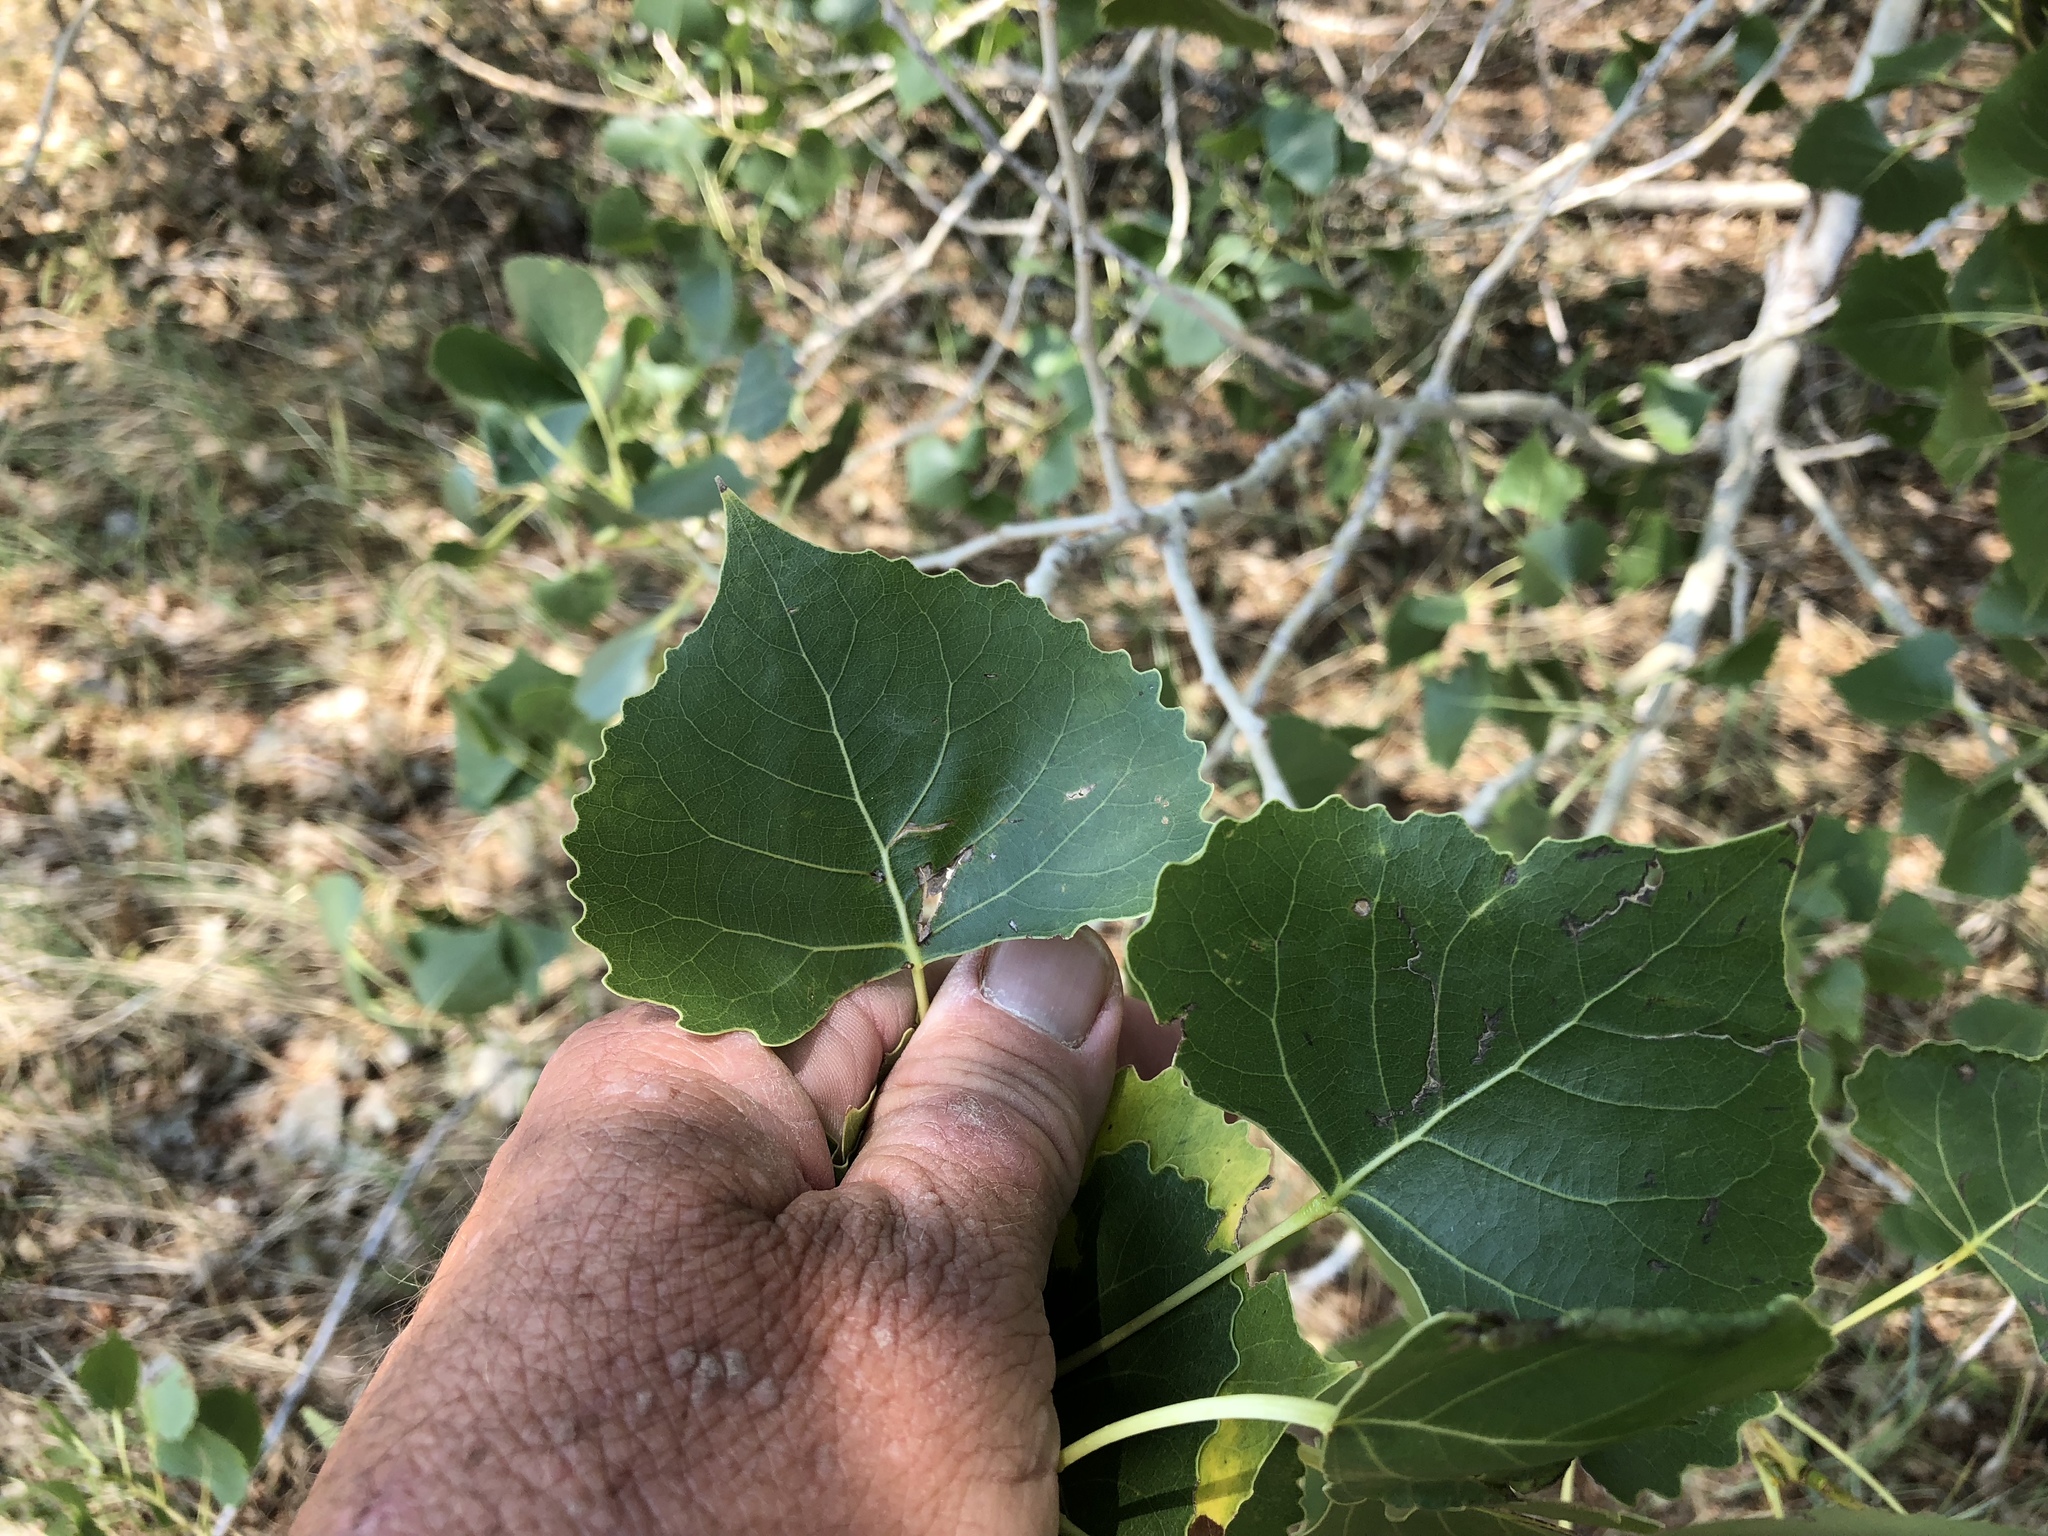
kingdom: Plantae
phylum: Tracheophyta
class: Magnoliopsida
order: Malpighiales
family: Salicaceae
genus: Populus
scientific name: Populus deltoides
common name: Eastern cottonwood
